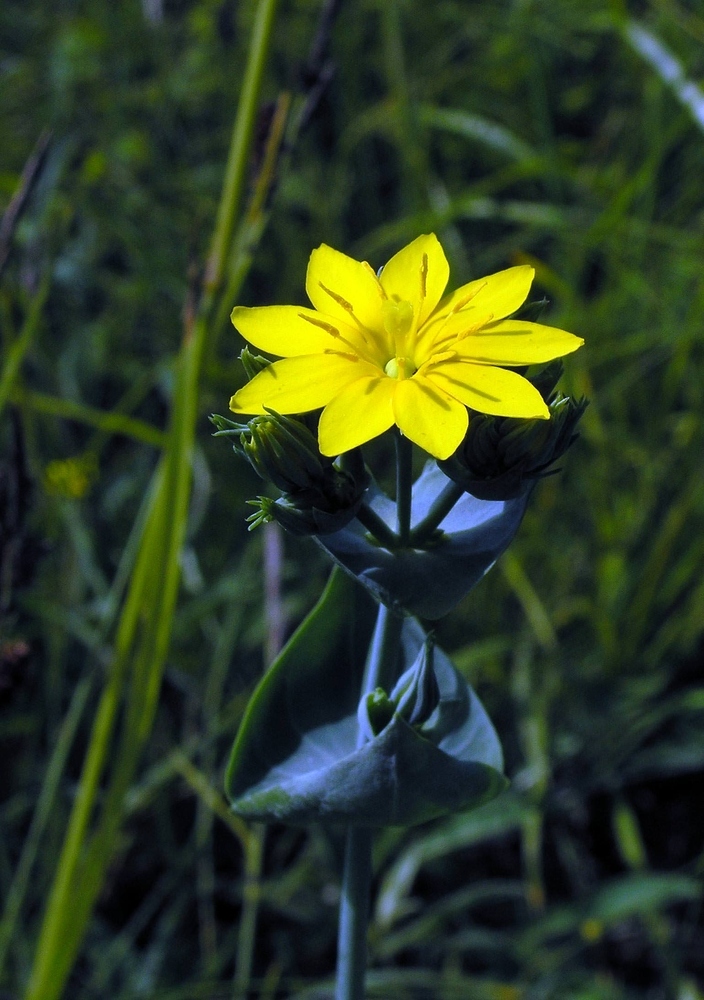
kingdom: Plantae
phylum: Tracheophyta
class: Magnoliopsida
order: Gentianales
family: Gentianaceae
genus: Blackstonia
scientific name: Blackstonia perfoliata
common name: Yellow-wort
